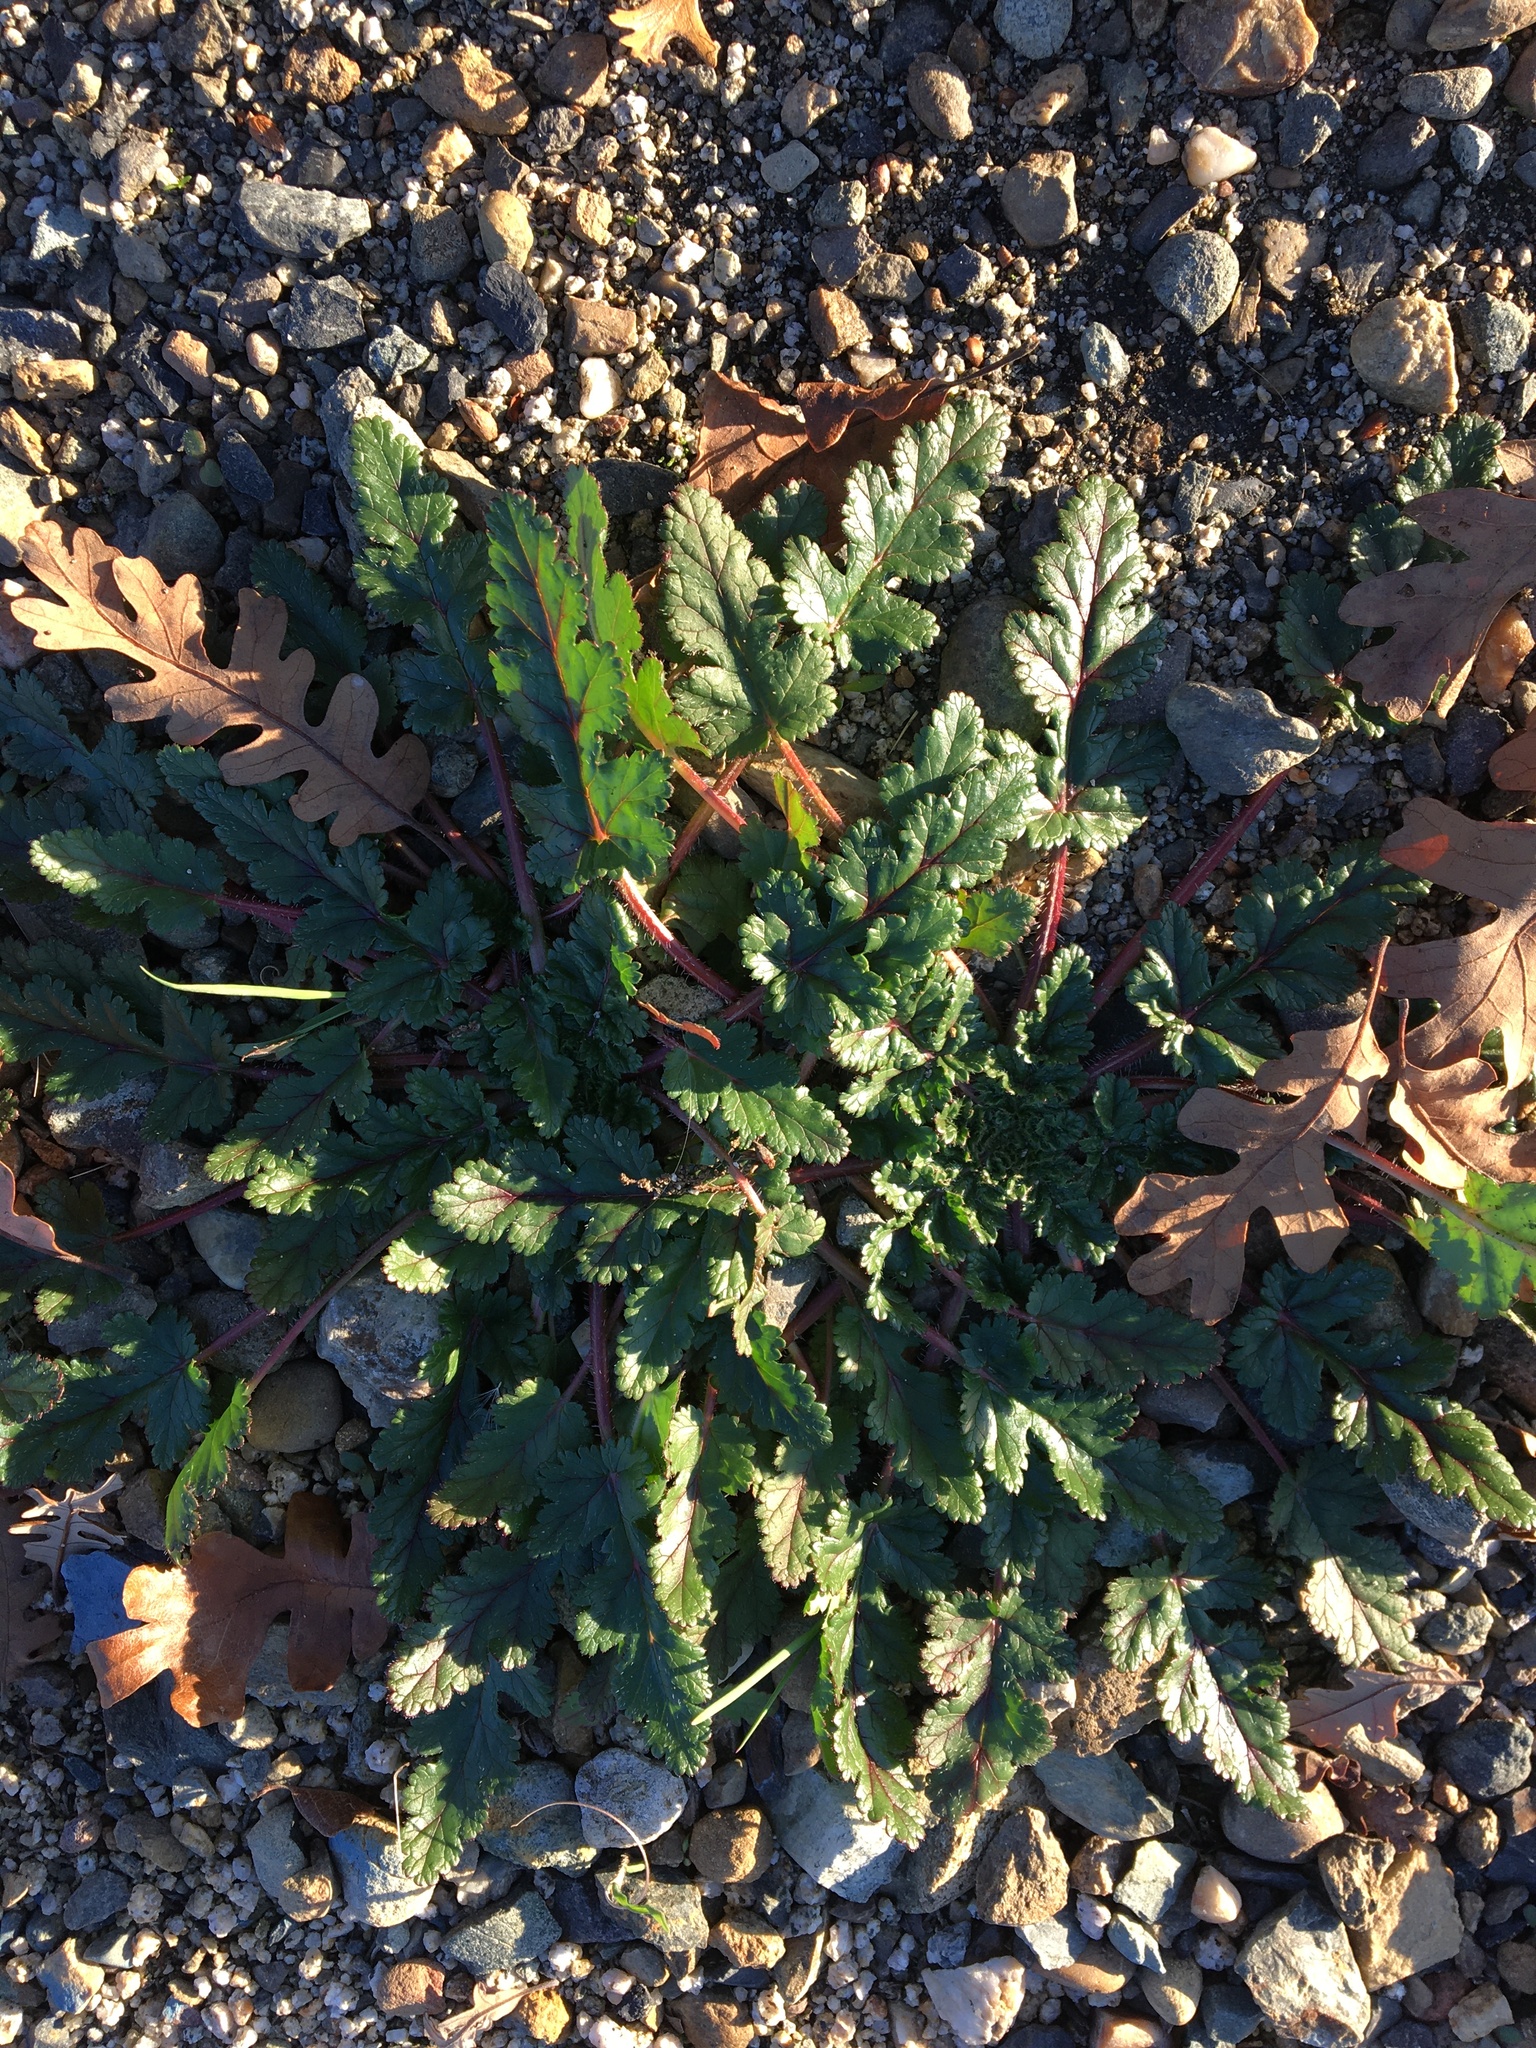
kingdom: Plantae
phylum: Tracheophyta
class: Magnoliopsida
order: Geraniales
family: Geraniaceae
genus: Erodium
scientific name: Erodium
